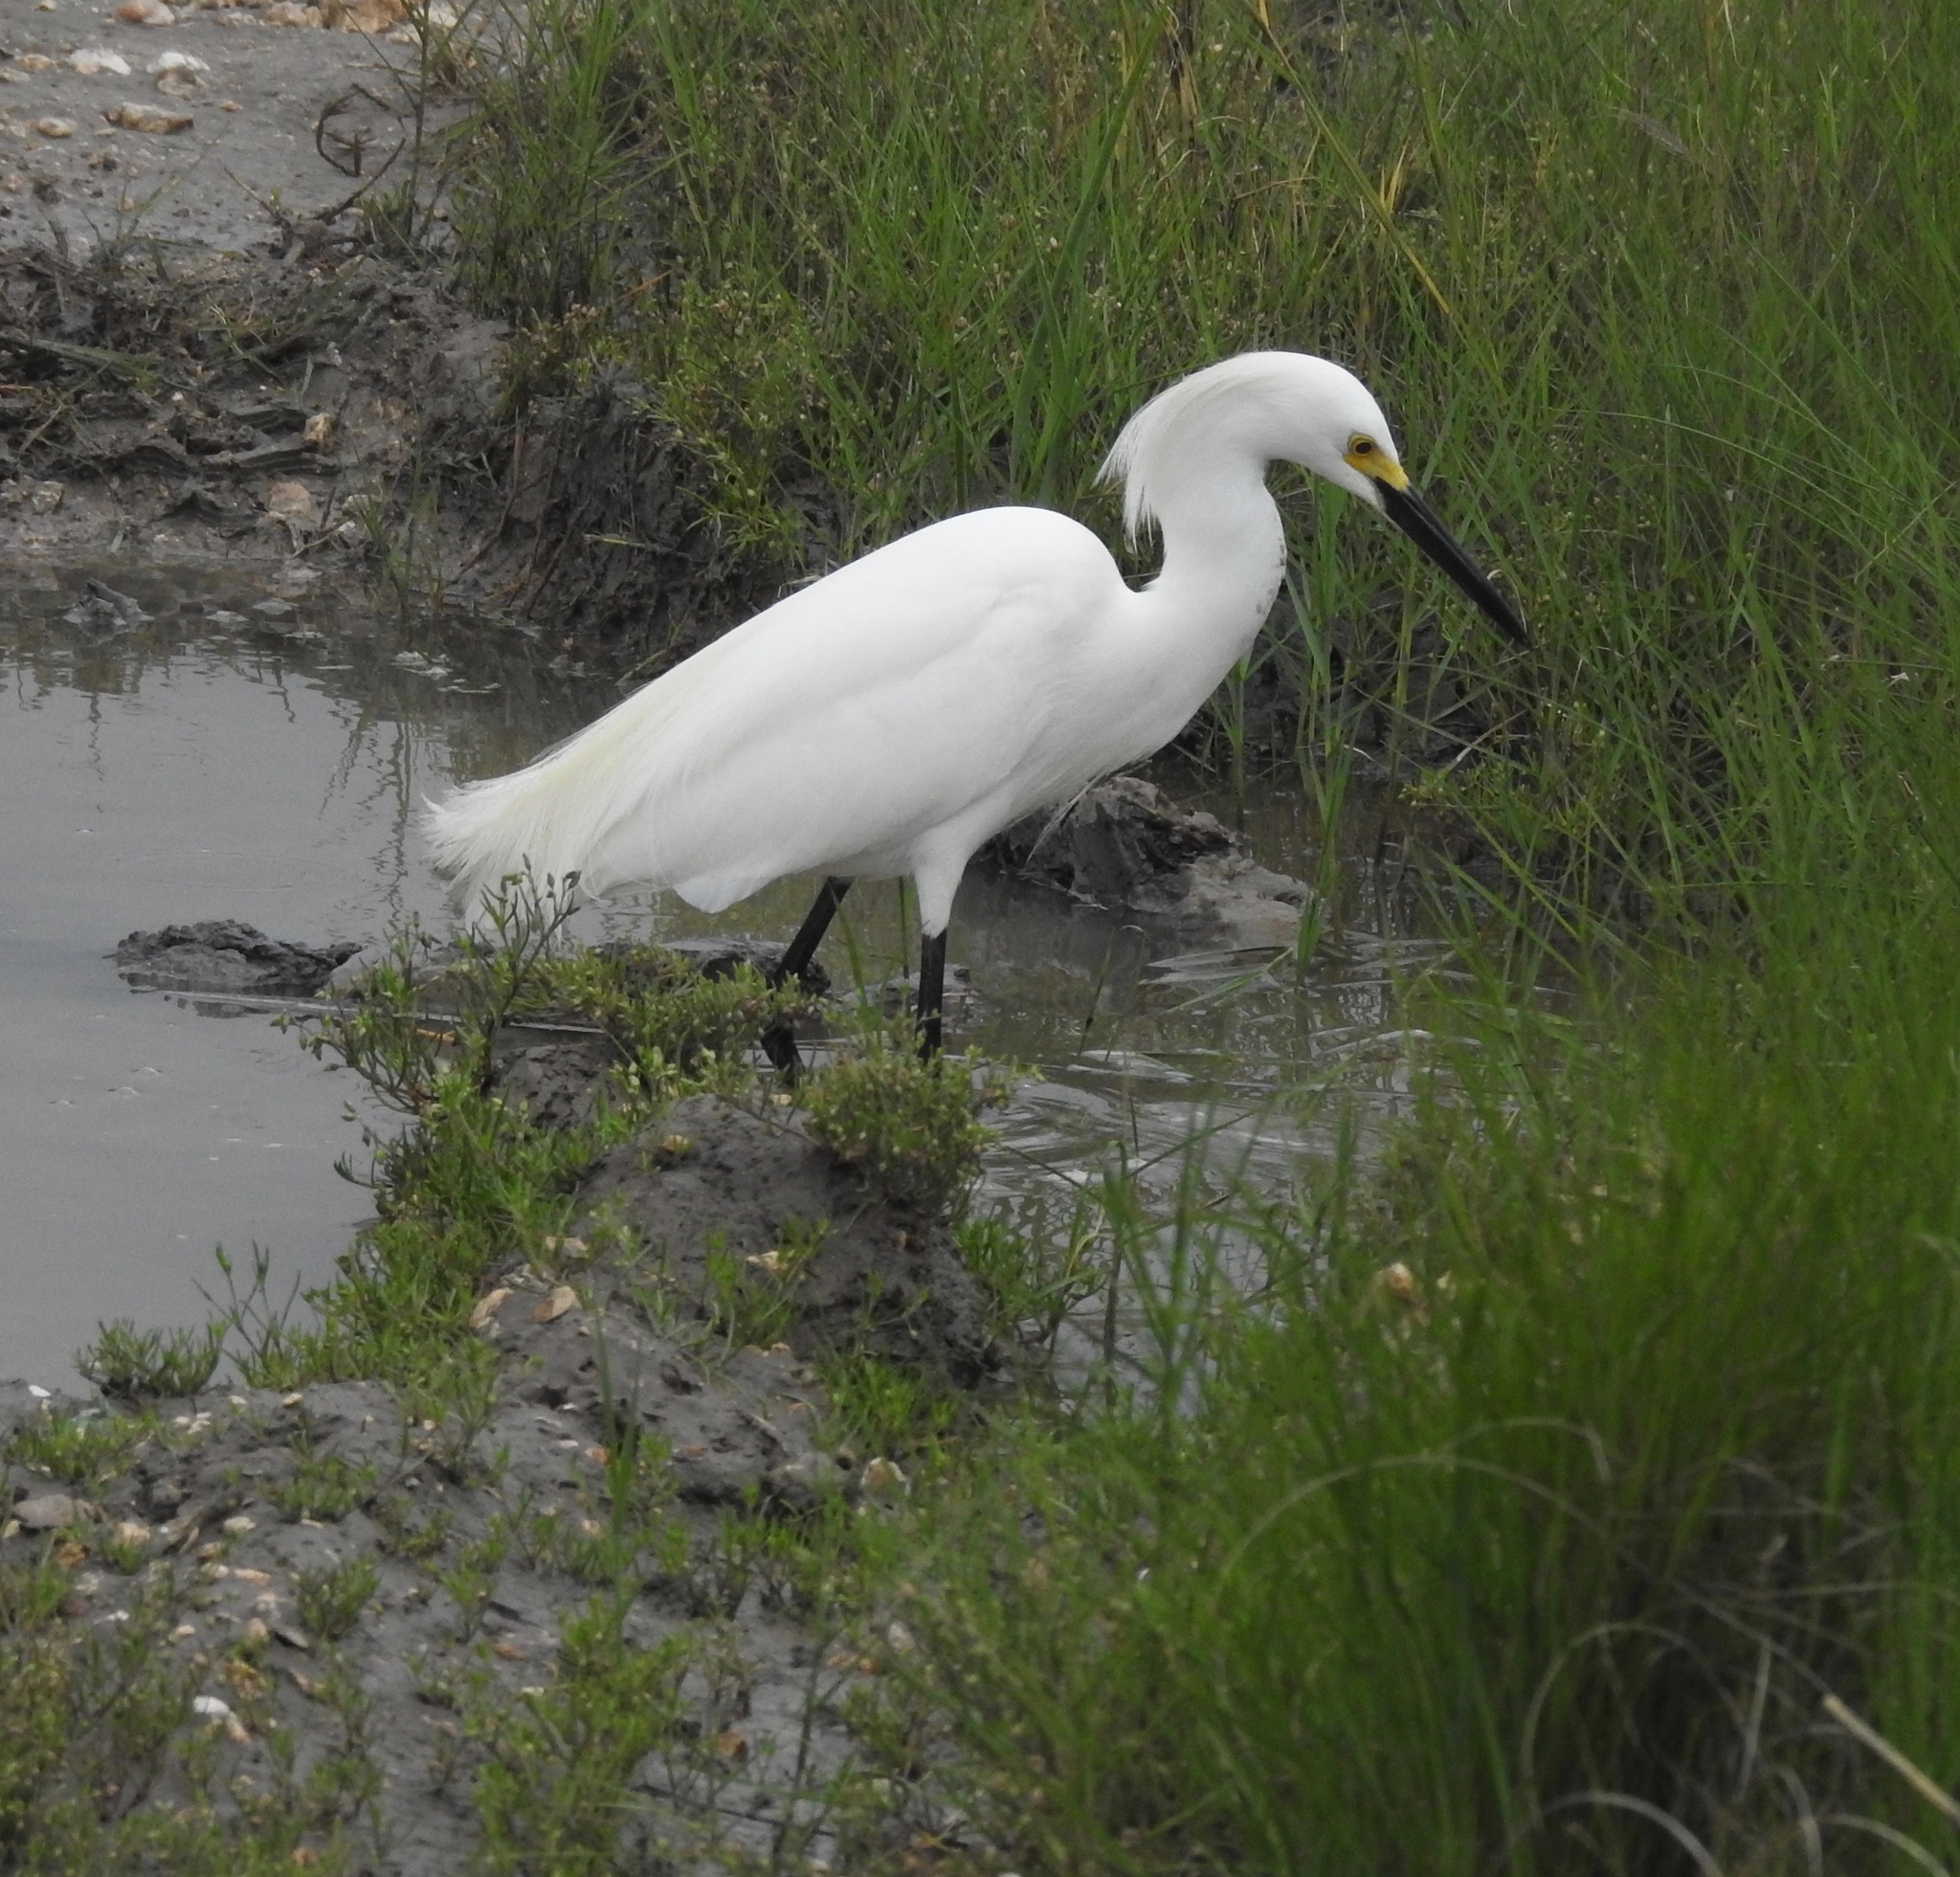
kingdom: Animalia
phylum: Chordata
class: Aves
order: Pelecaniformes
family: Ardeidae
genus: Egretta
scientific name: Egretta thula
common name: Snowy egret
